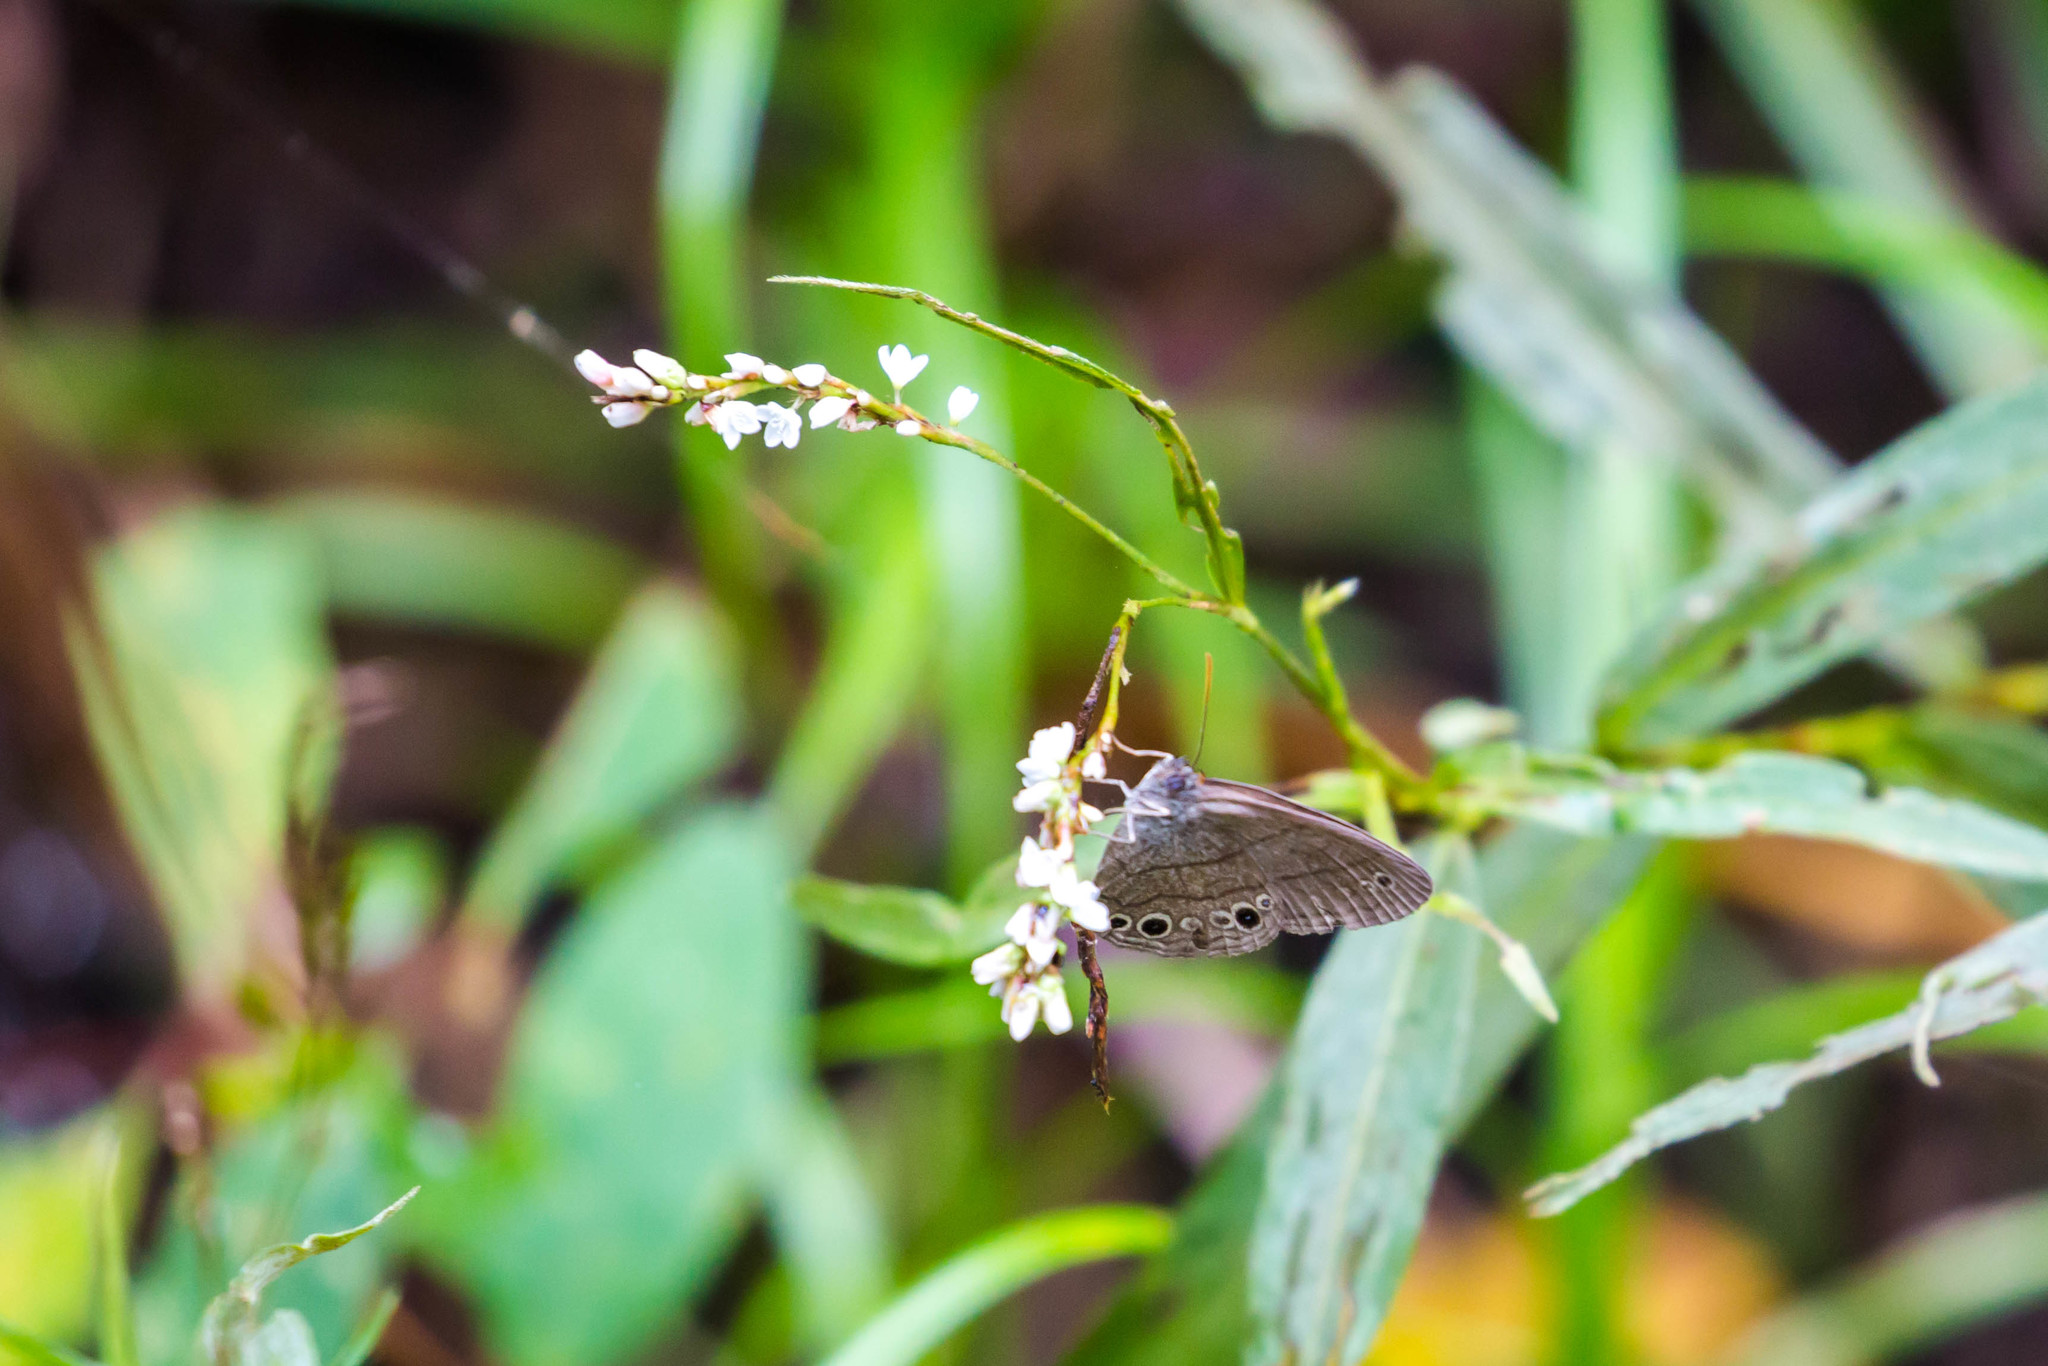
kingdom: Animalia
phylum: Arthropoda
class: Insecta
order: Lepidoptera
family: Nymphalidae
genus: Hermeuptychia
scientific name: Hermeuptychia hermes
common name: Hermes satyr
